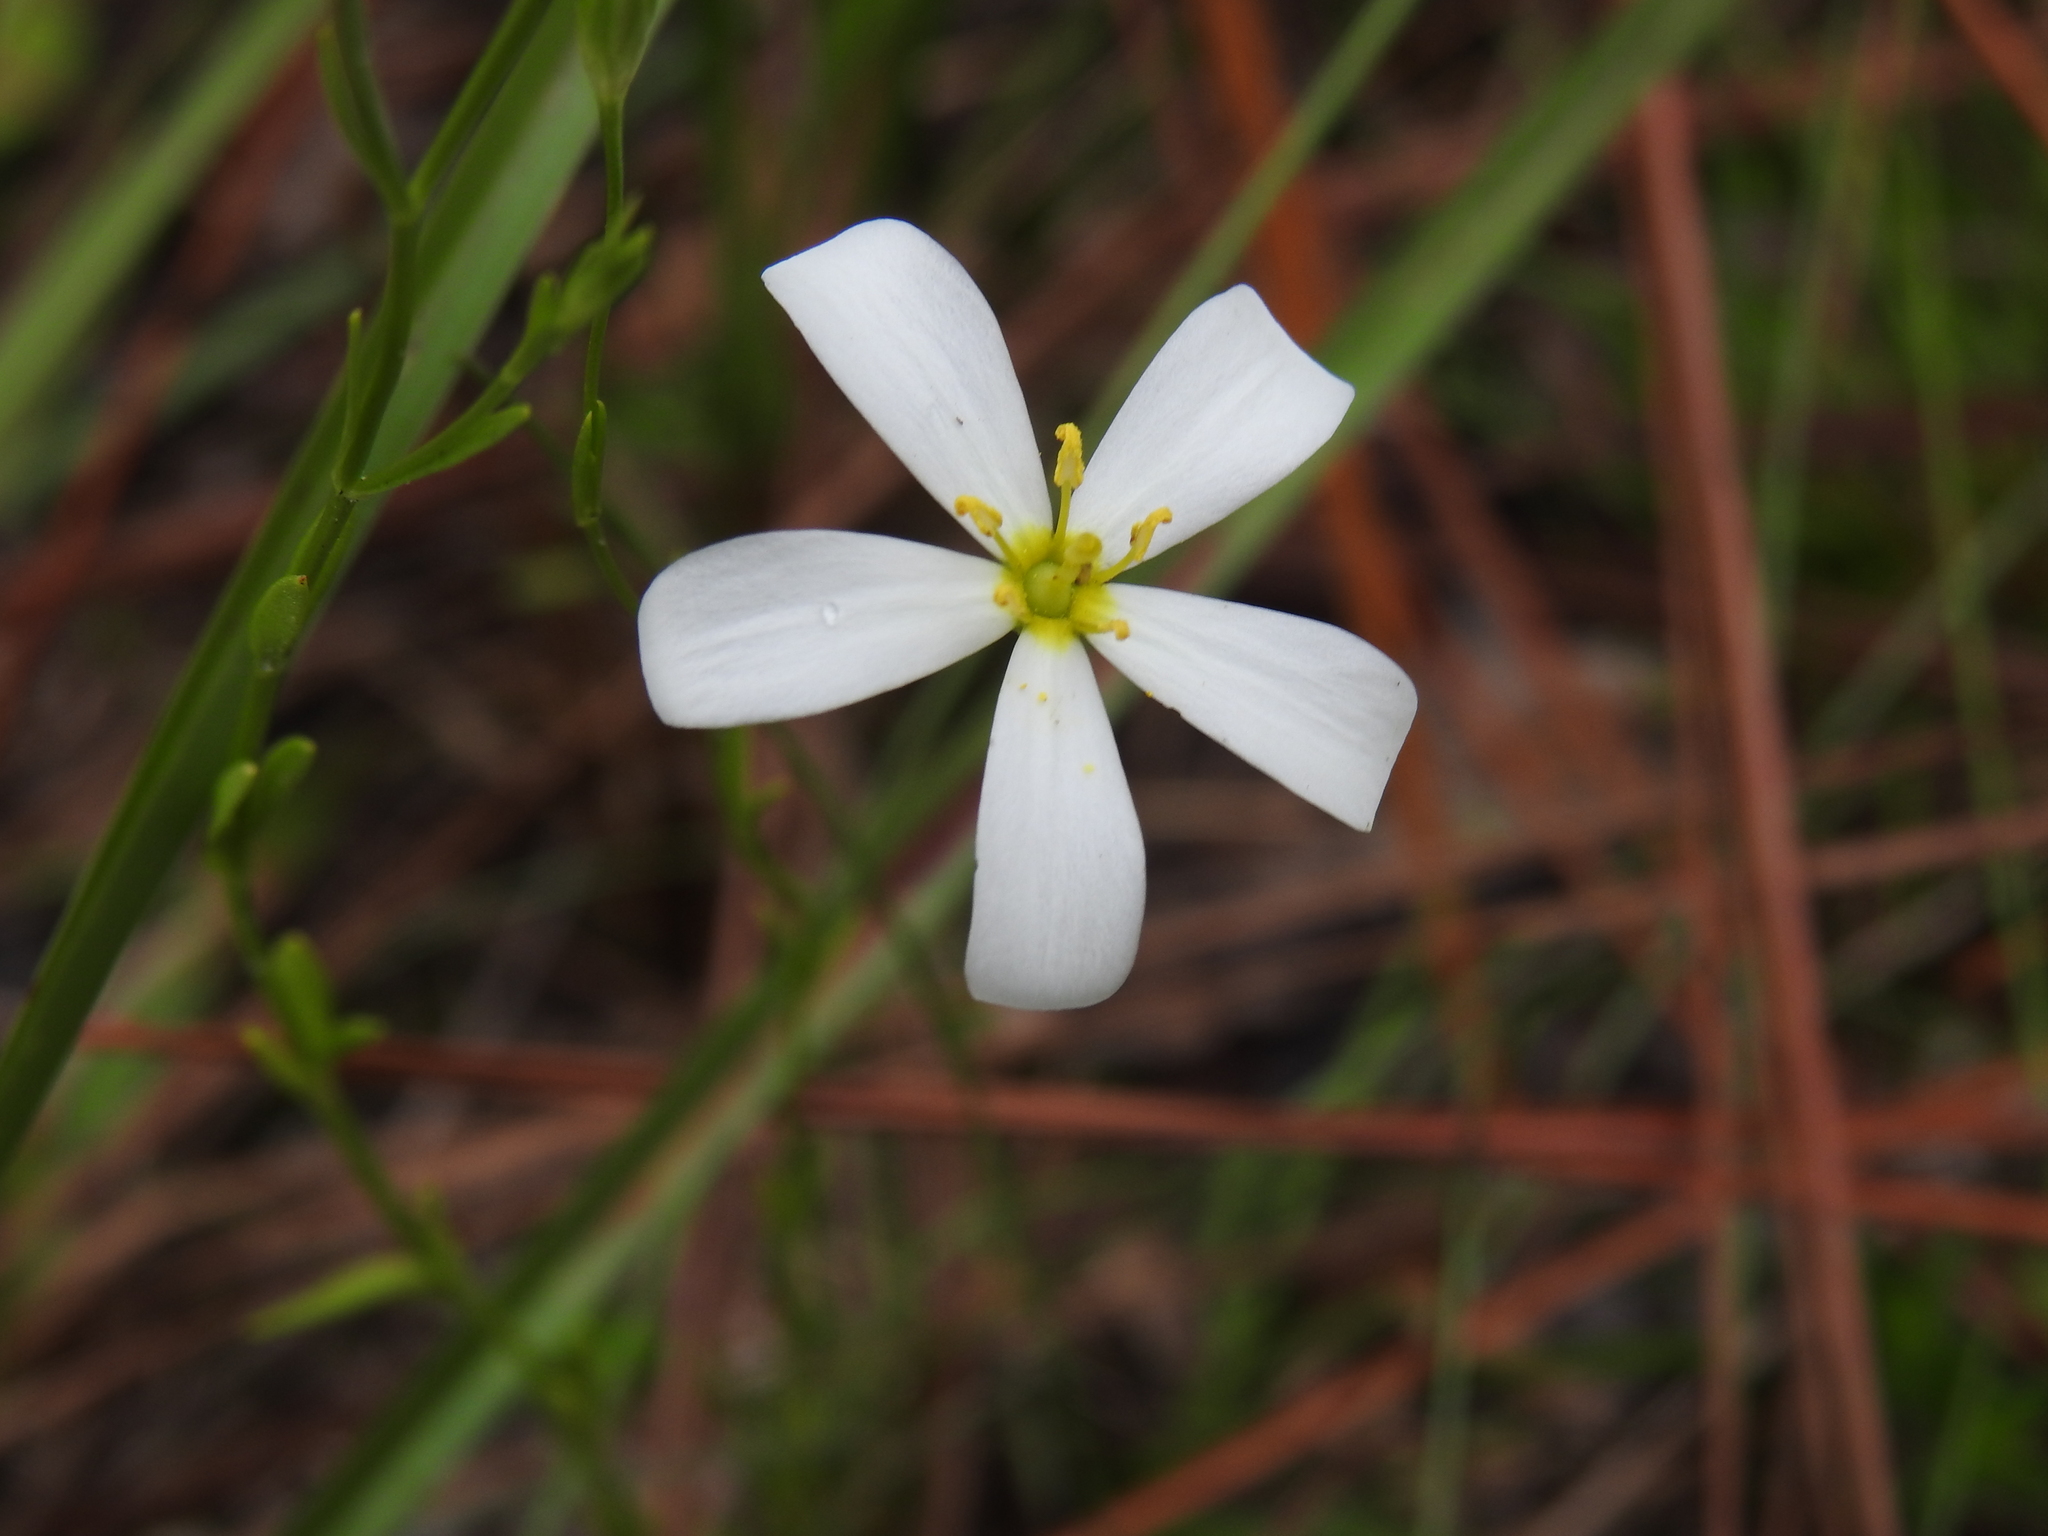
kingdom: Plantae
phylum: Tracheophyta
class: Magnoliopsida
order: Gentianales
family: Gentianaceae
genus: Sabatia
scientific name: Sabatia brevifolia
